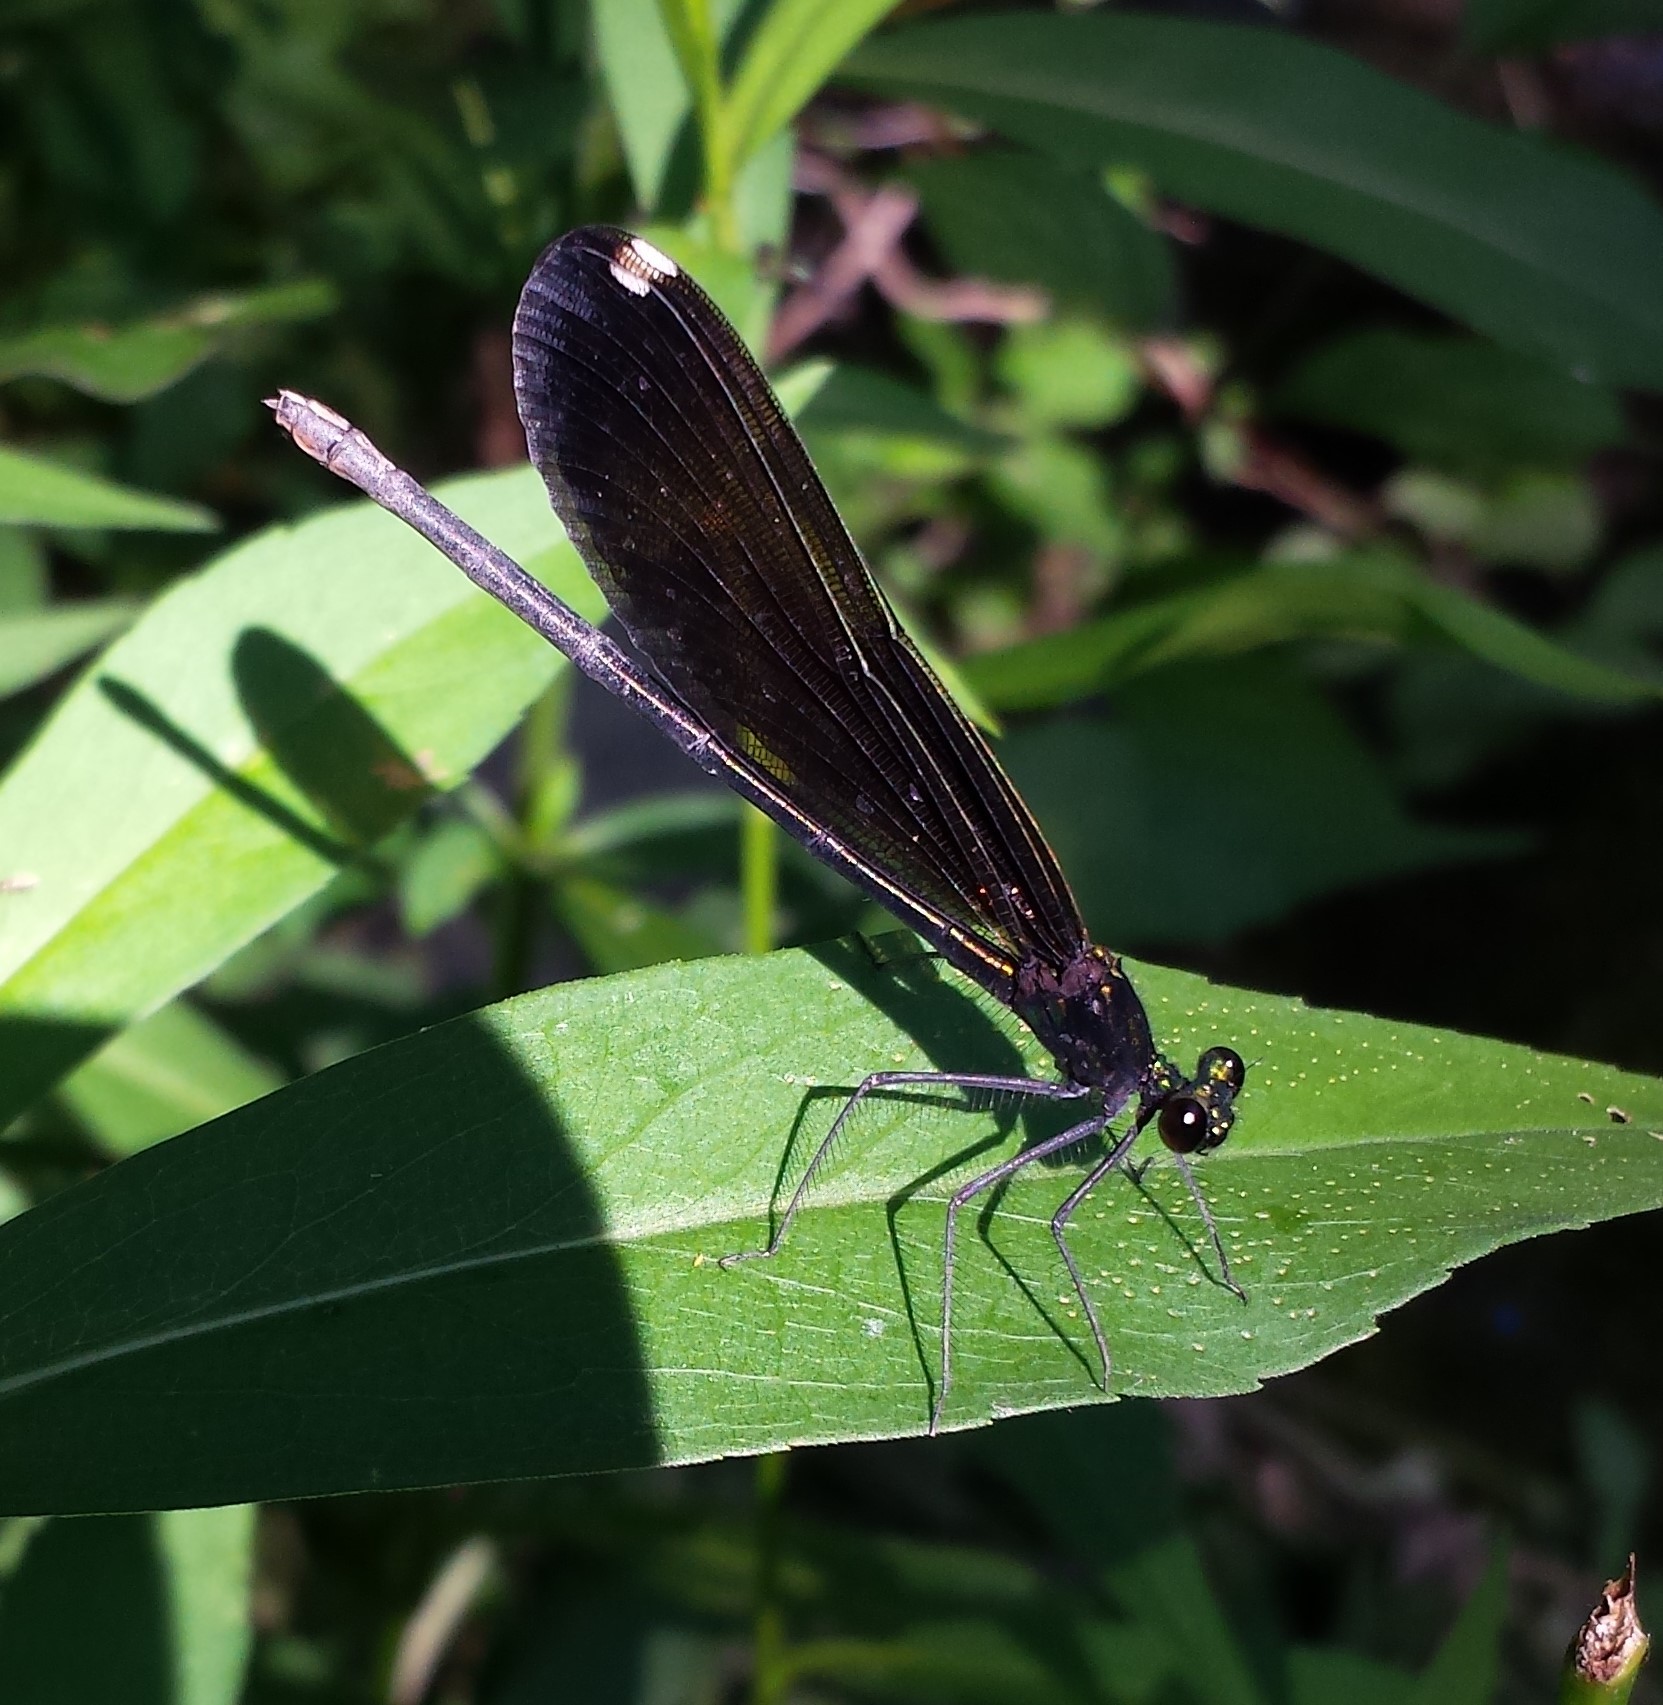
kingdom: Animalia
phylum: Arthropoda
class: Insecta
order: Odonata
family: Calopterygidae
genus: Calopteryx
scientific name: Calopteryx maculata
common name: Ebony jewelwing
